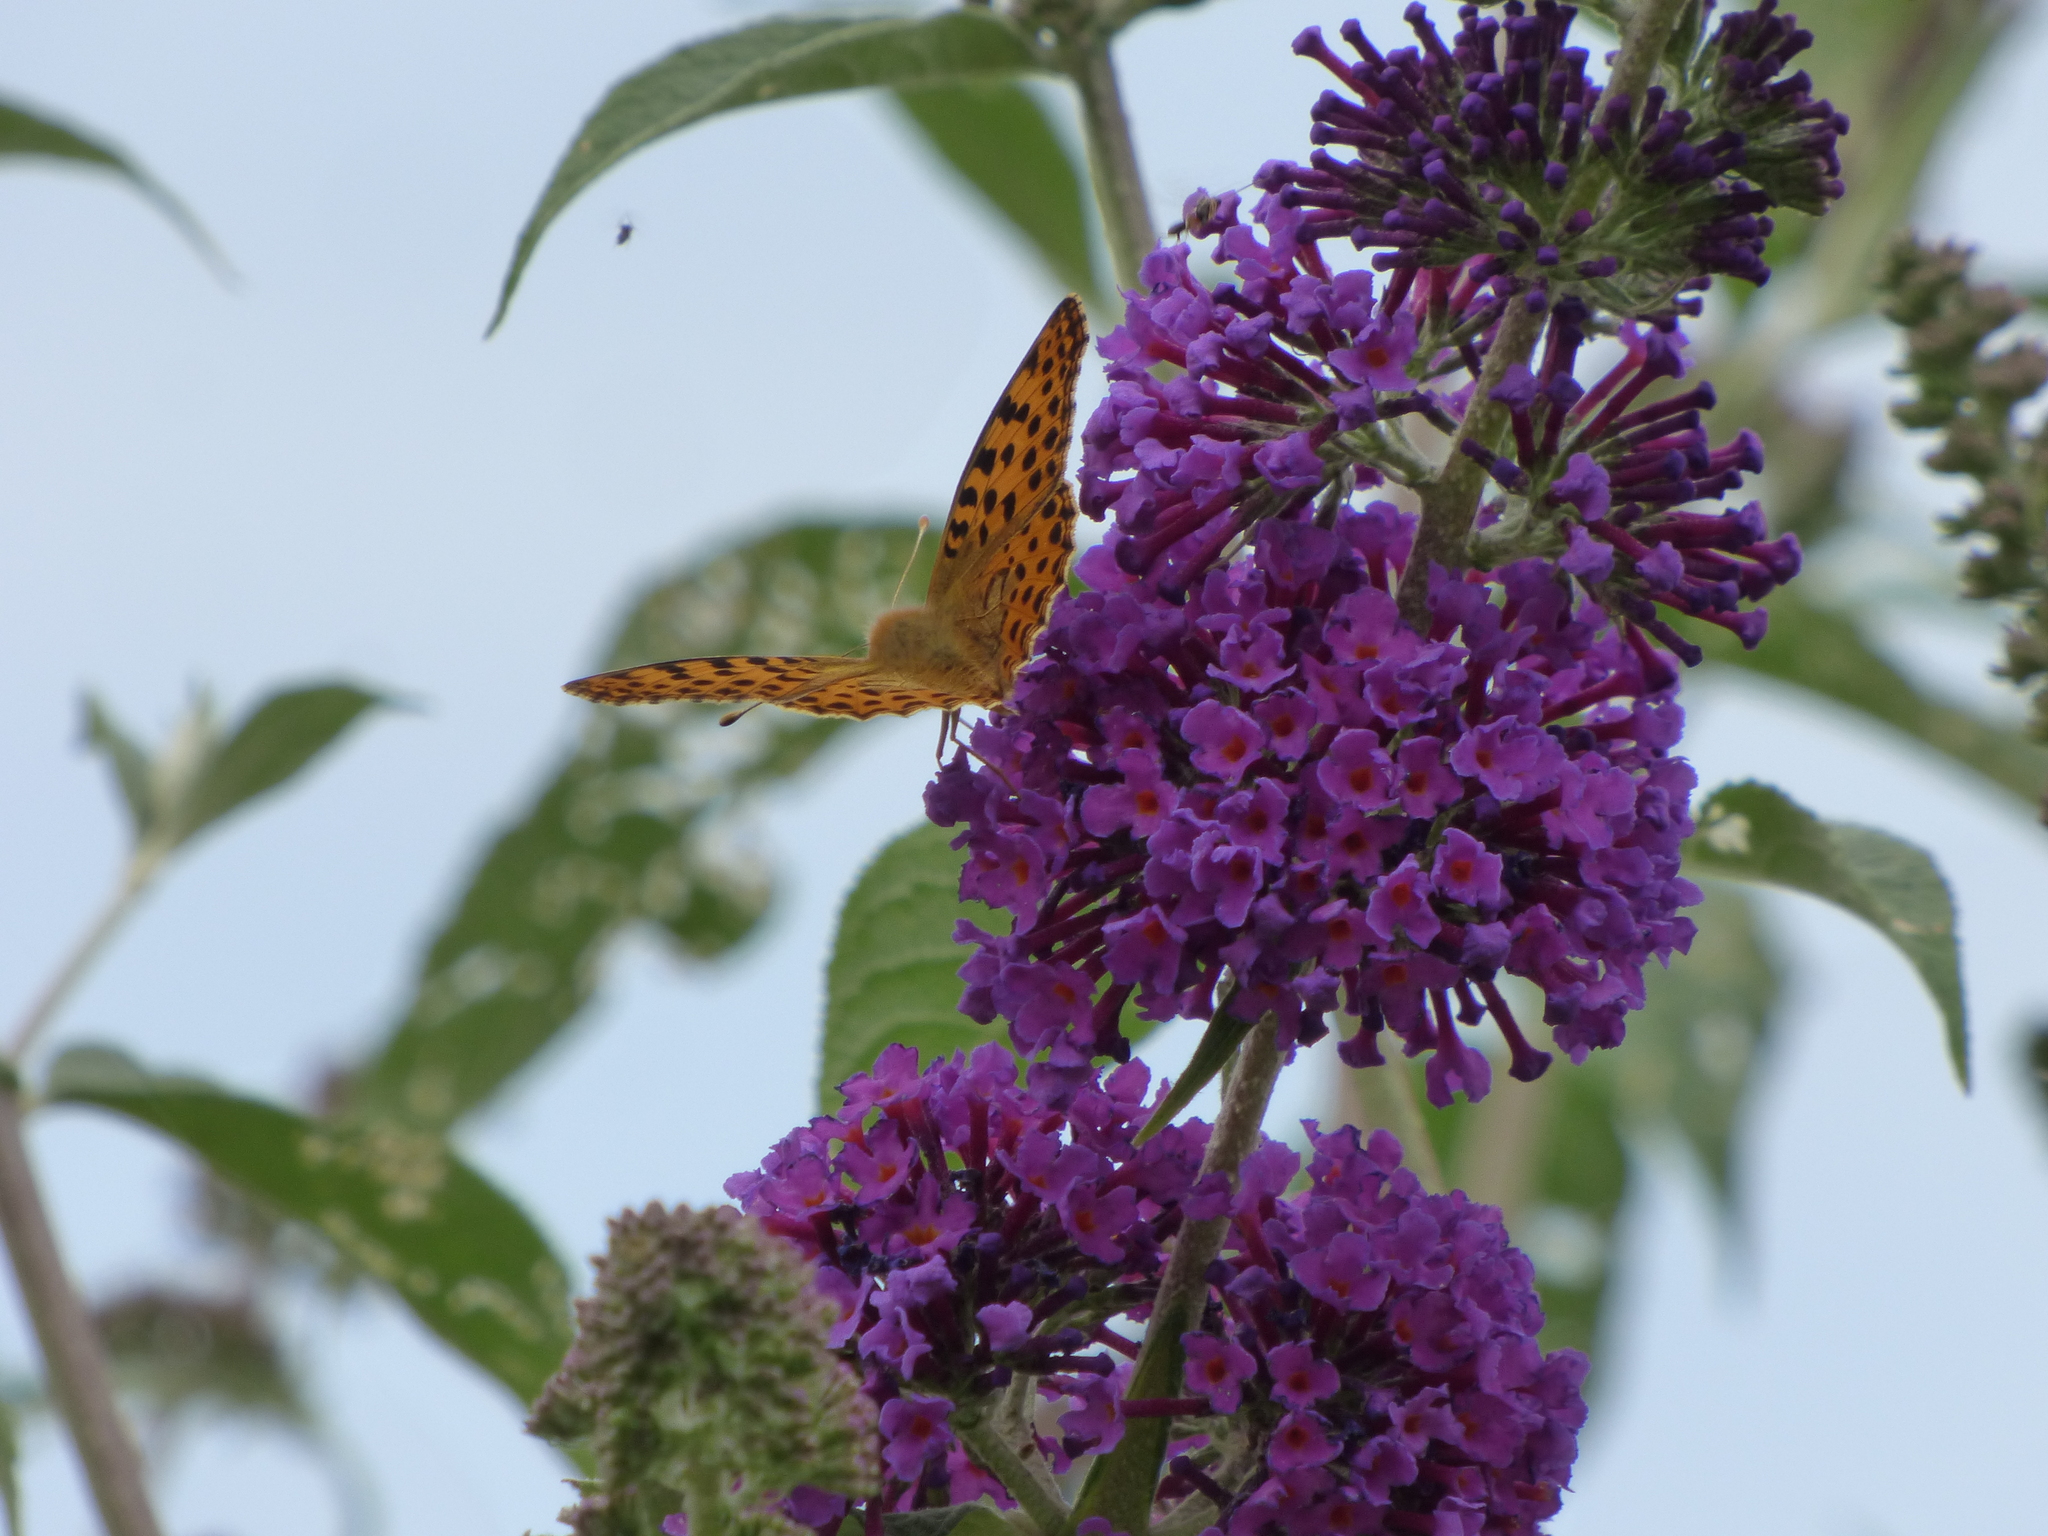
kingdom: Animalia
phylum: Arthropoda
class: Insecta
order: Lepidoptera
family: Nymphalidae
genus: Issoria
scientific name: Issoria lathonia
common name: Queen of spain fritillary
